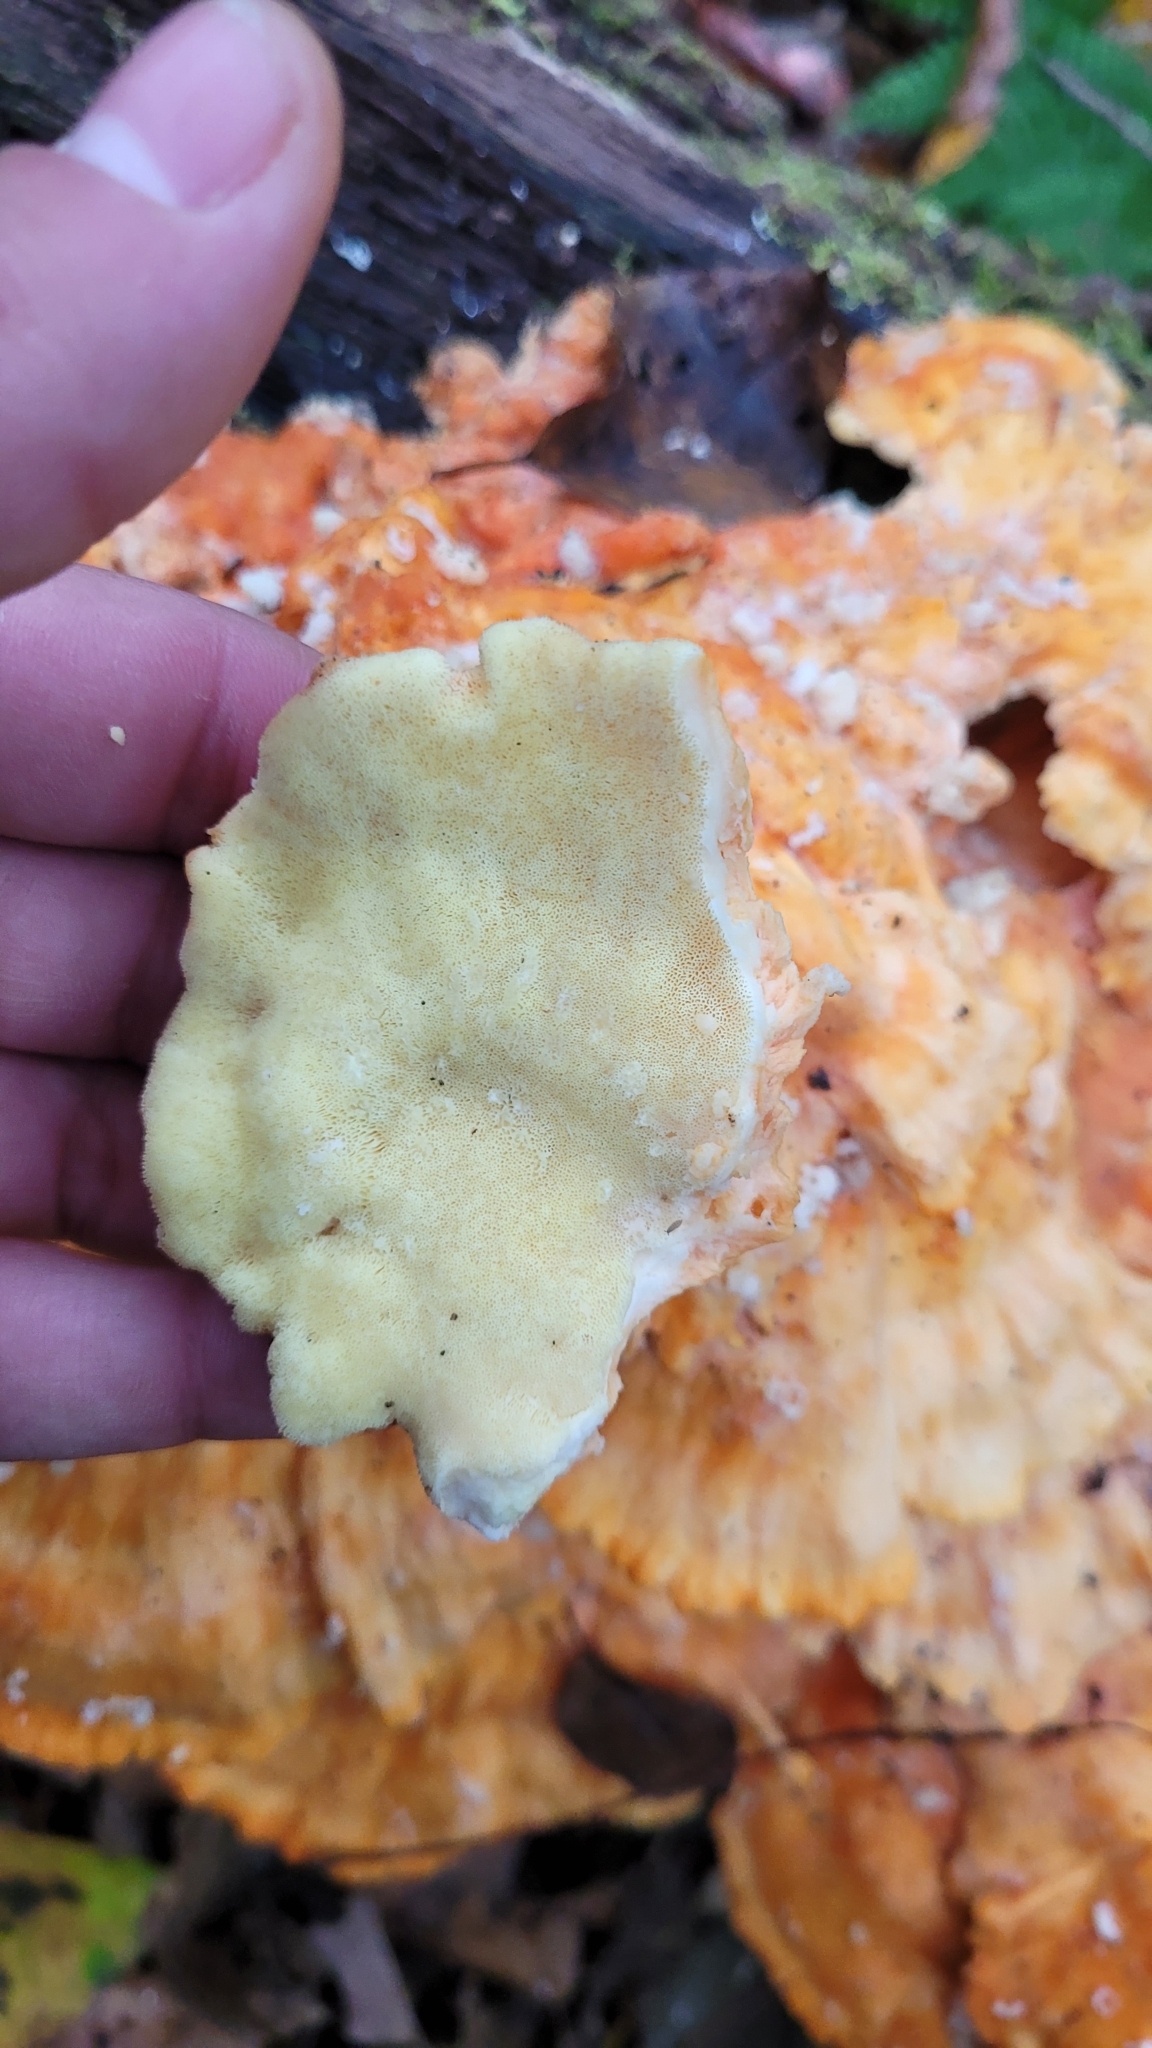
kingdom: Fungi
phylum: Basidiomycota
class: Agaricomycetes
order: Polyporales
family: Laetiporaceae
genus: Laetiporus
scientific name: Laetiporus sulphureus
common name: Chicken of the woods
